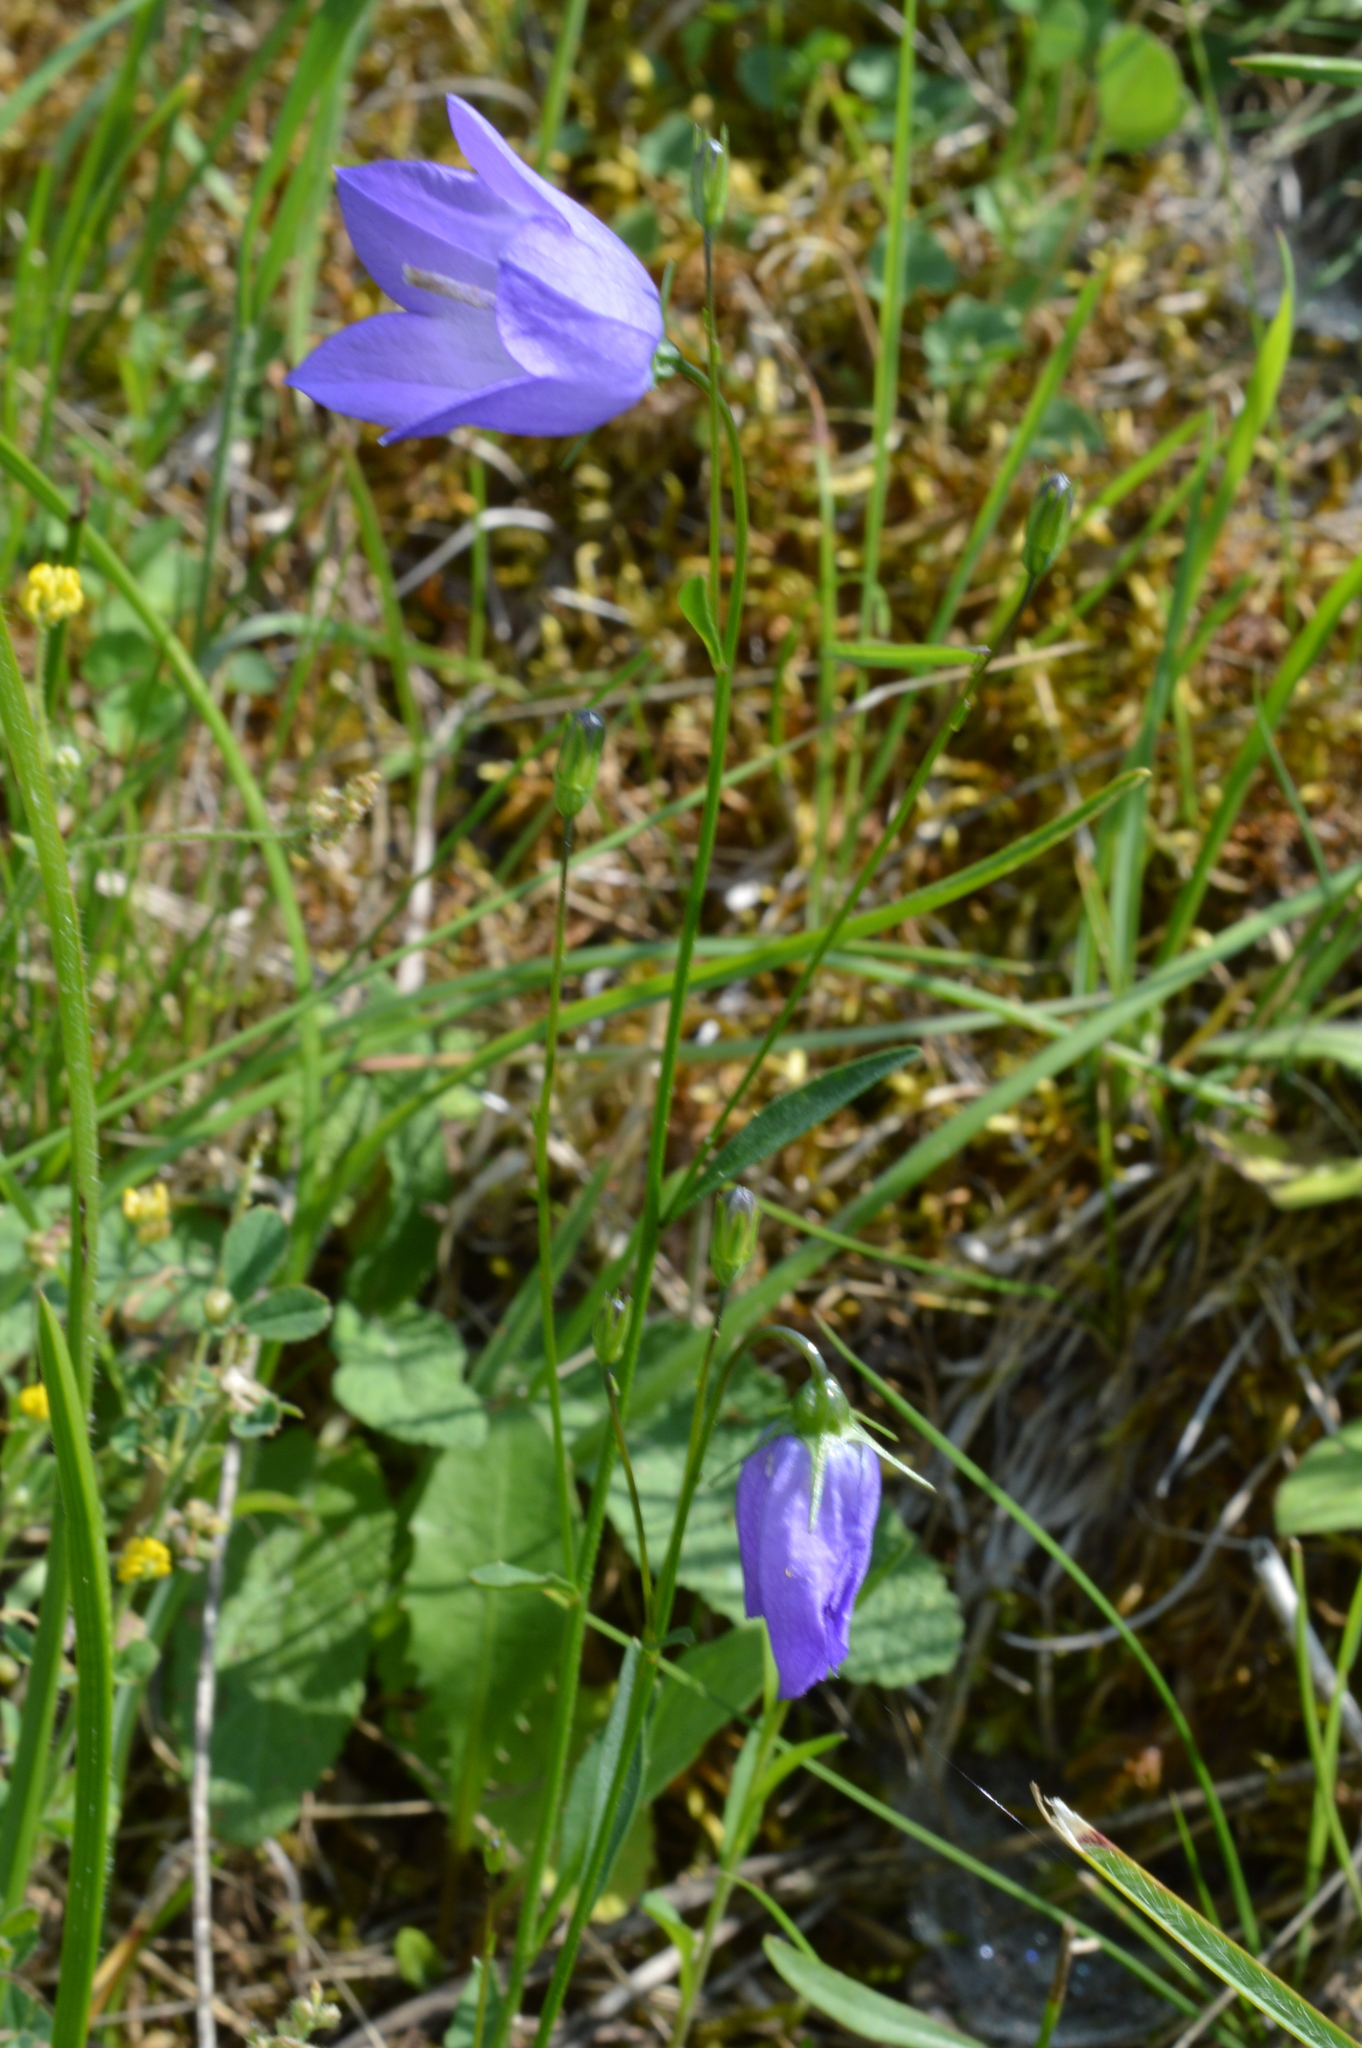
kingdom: Plantae
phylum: Tracheophyta
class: Magnoliopsida
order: Asterales
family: Campanulaceae
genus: Campanula
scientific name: Campanula rotundifolia
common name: Harebell
